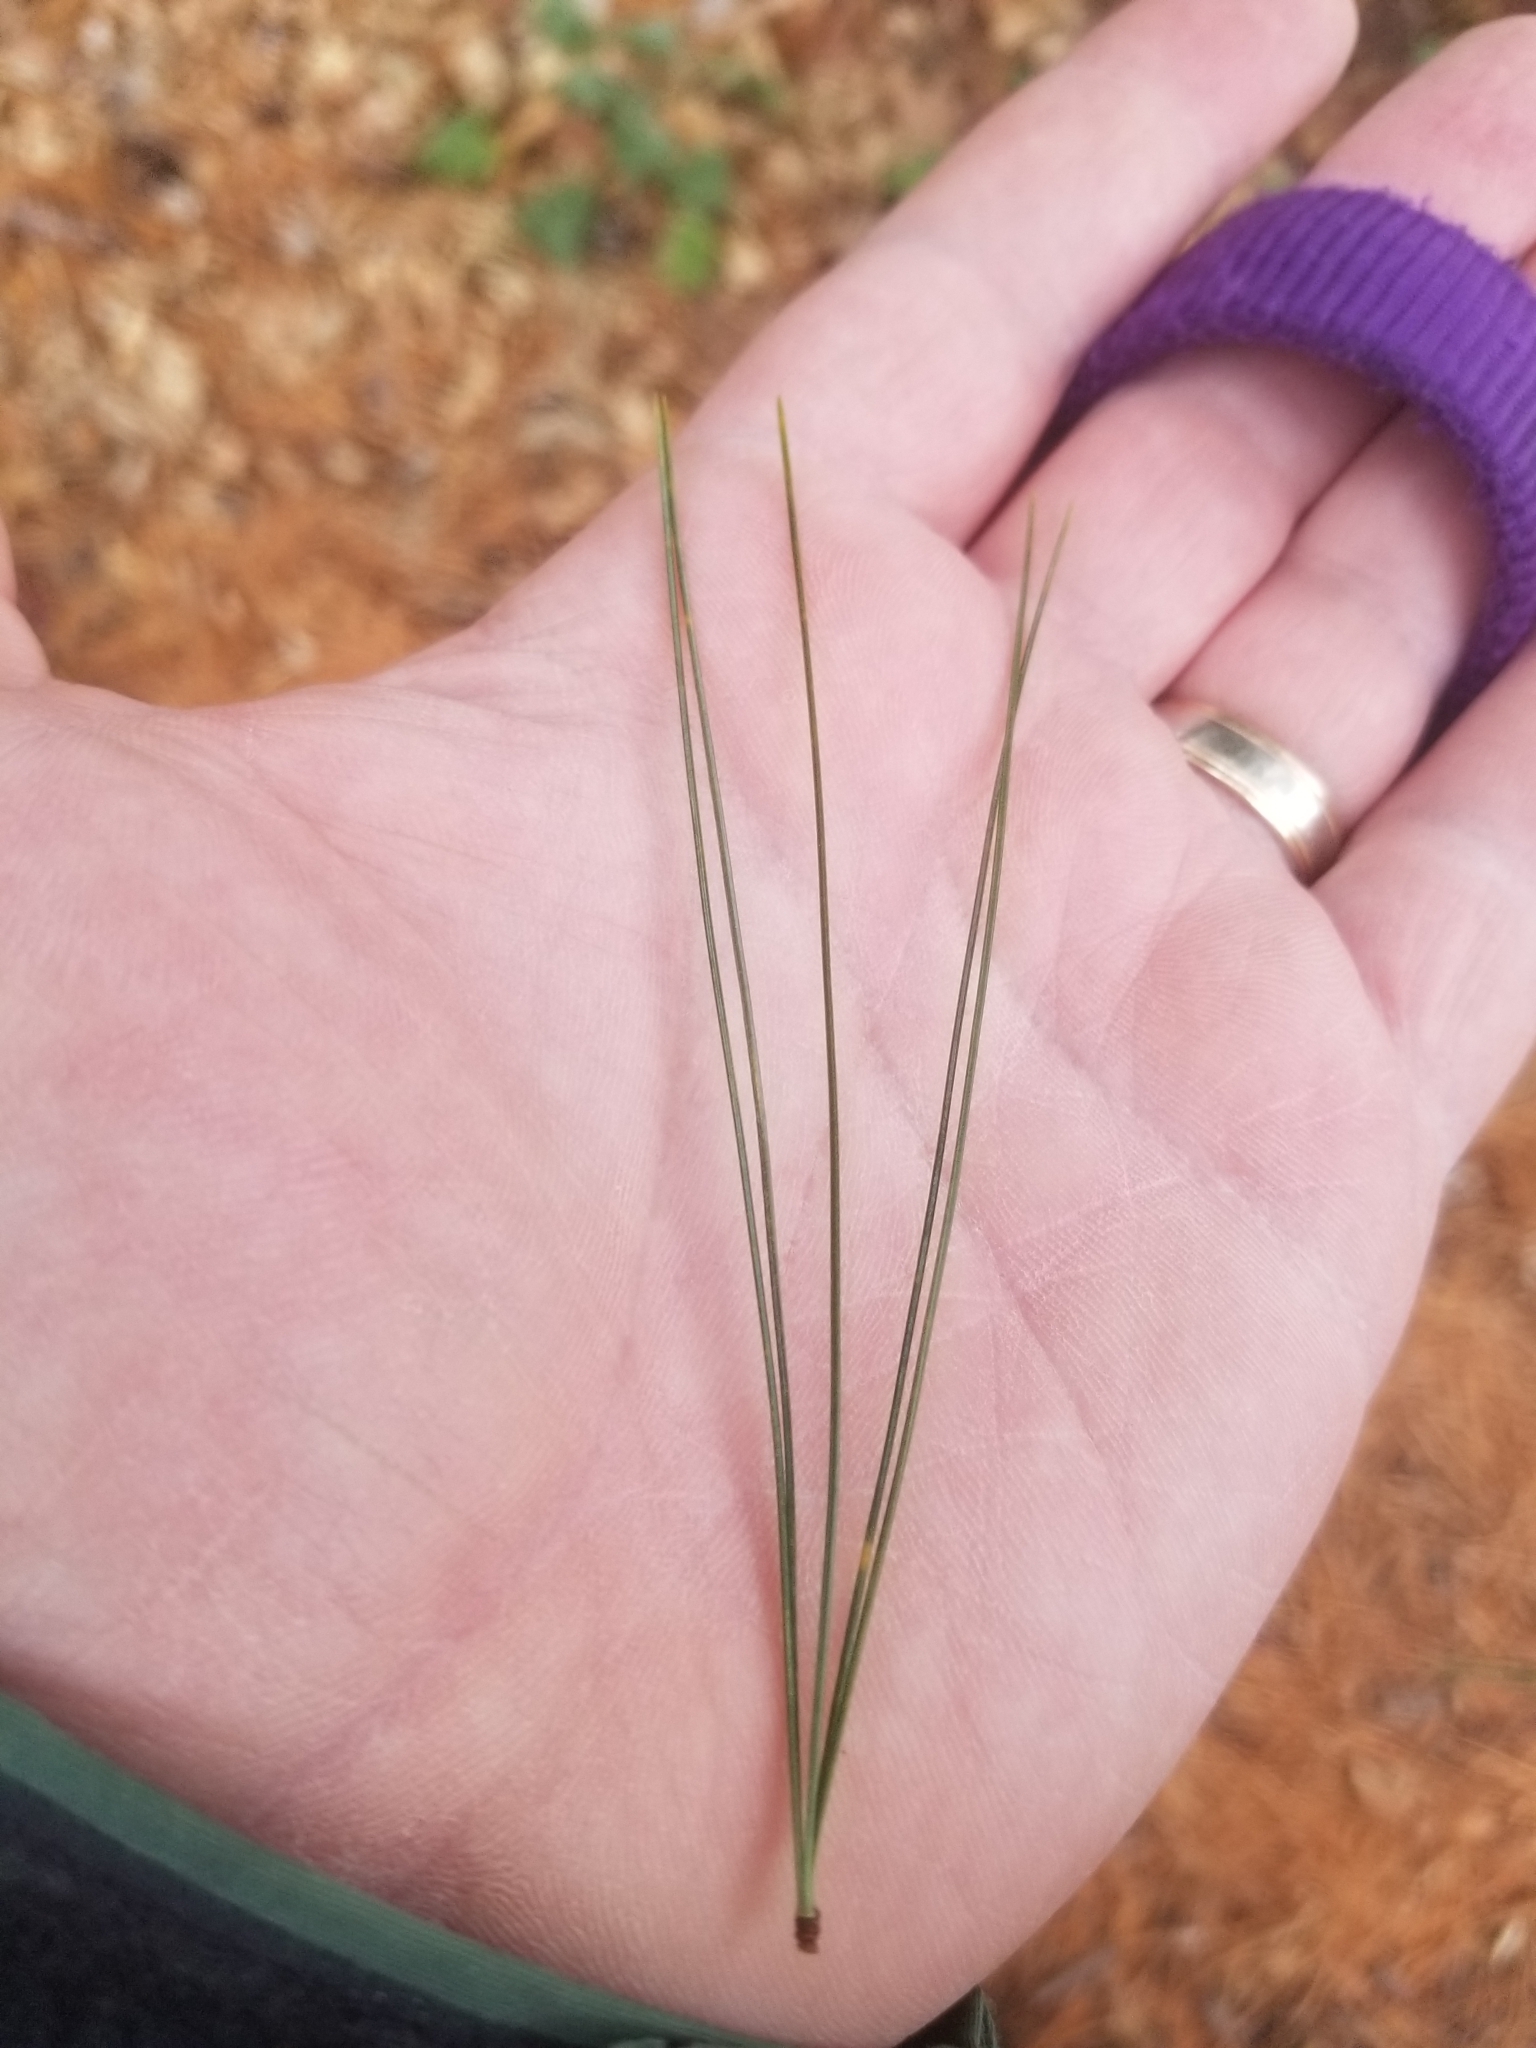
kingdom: Plantae
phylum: Tracheophyta
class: Pinopsida
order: Pinales
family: Pinaceae
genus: Pinus
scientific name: Pinus strobus
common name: Weymouth pine
